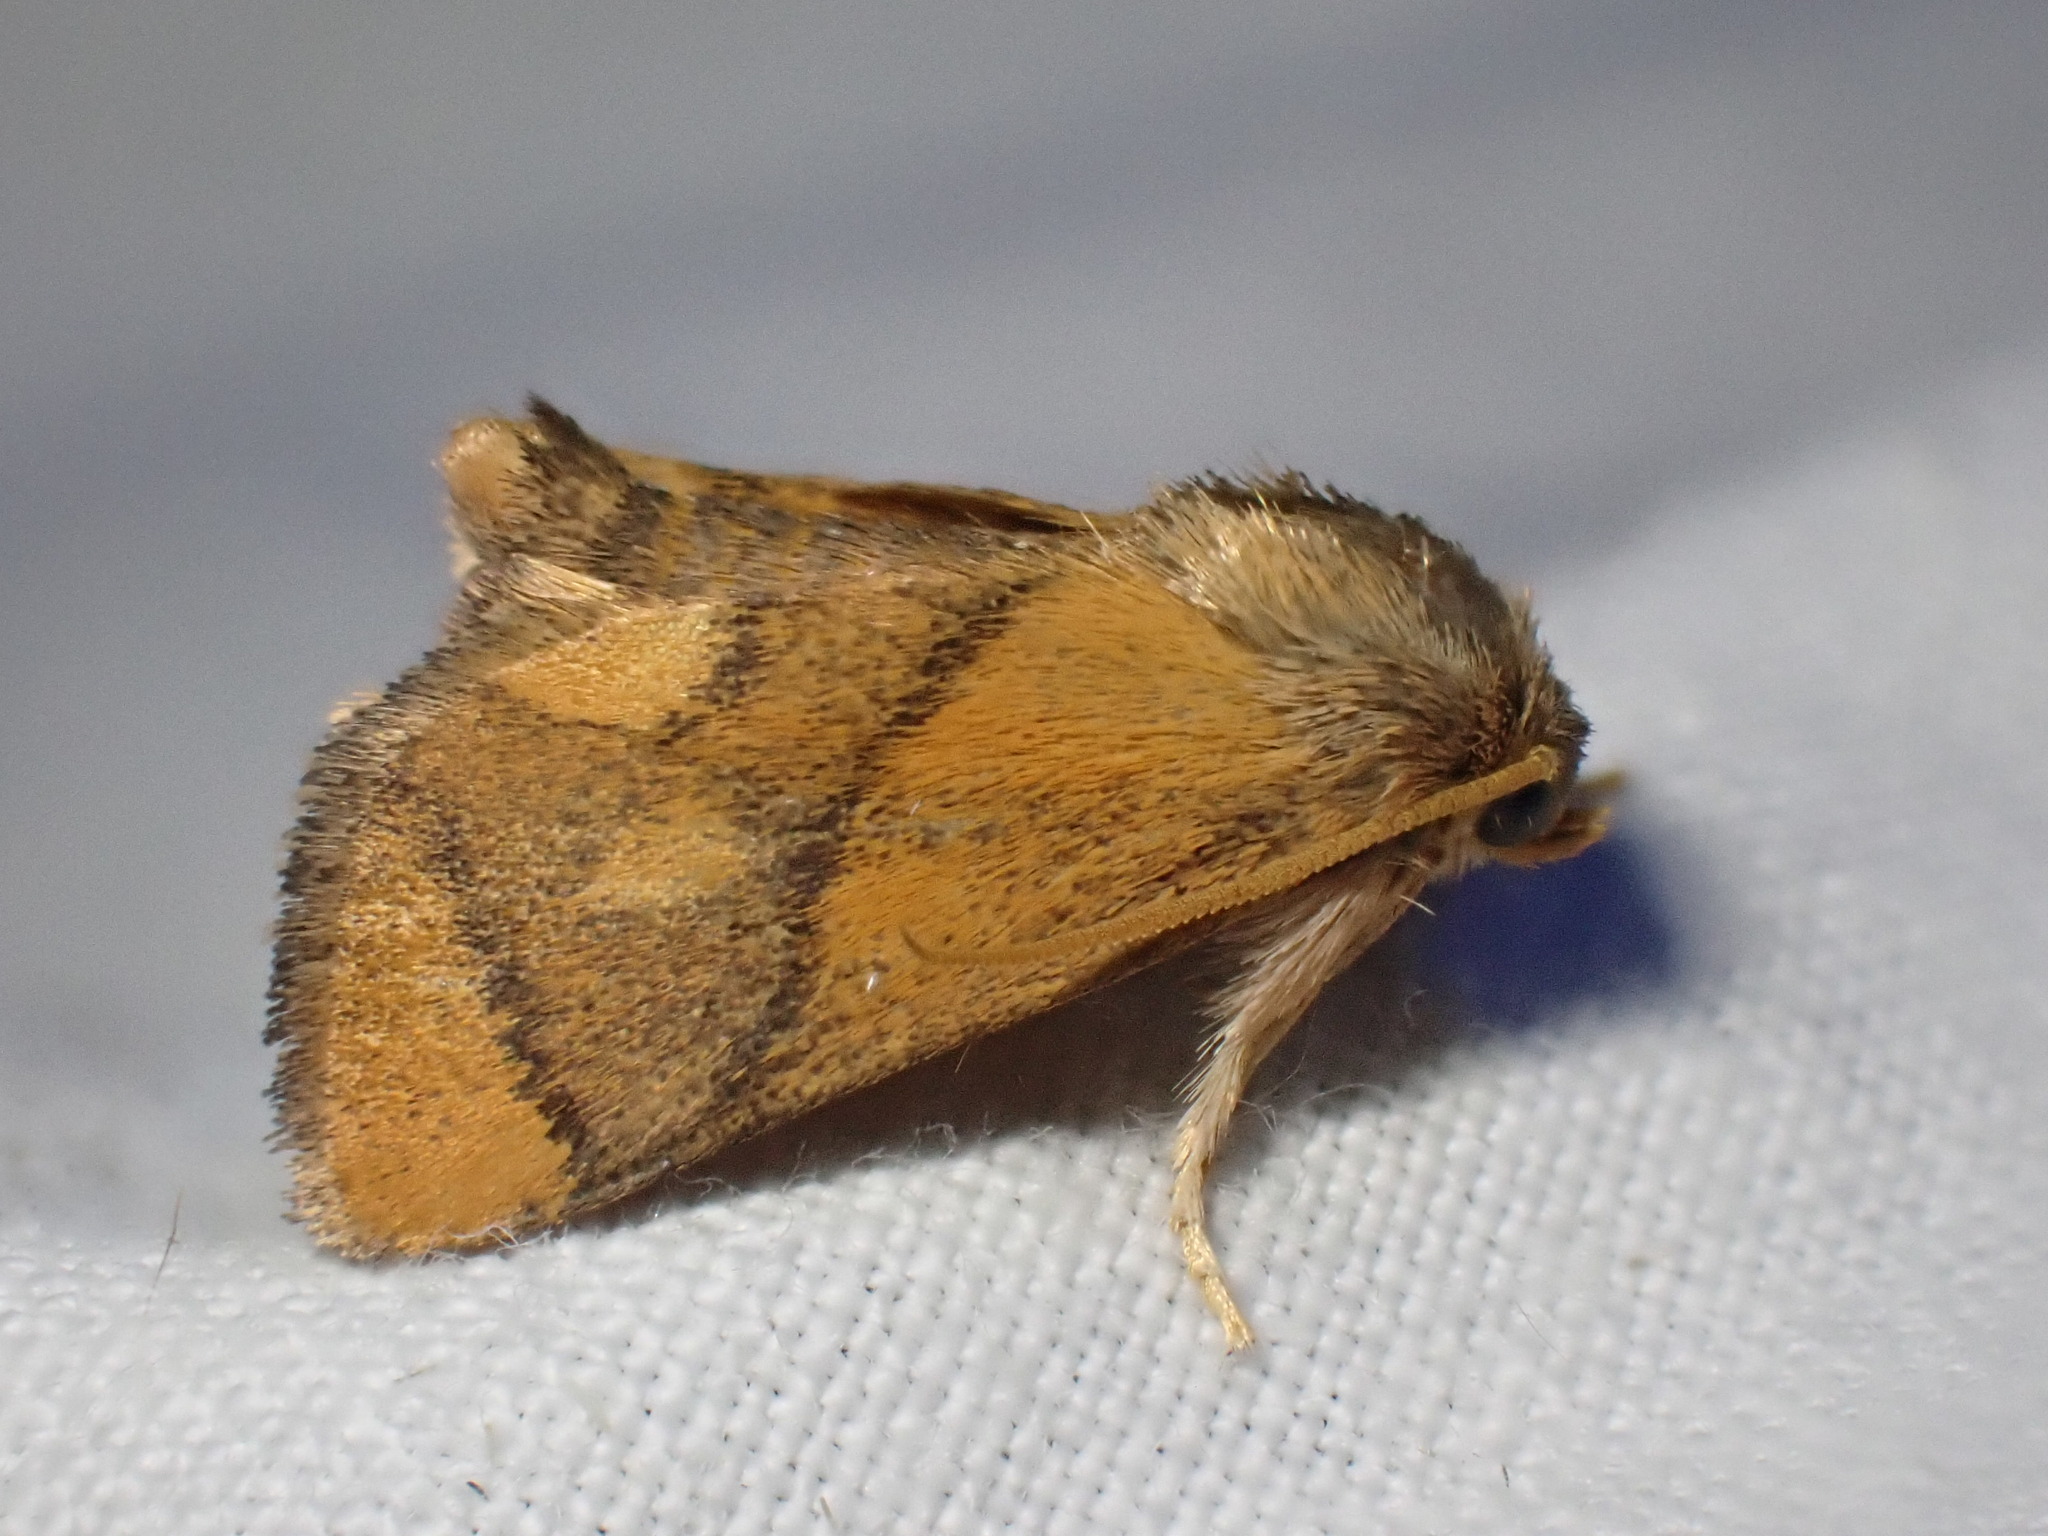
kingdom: Animalia
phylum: Arthropoda
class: Insecta
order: Lepidoptera
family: Limacodidae
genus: Apoda
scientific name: Apoda limacodes
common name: Festoon
